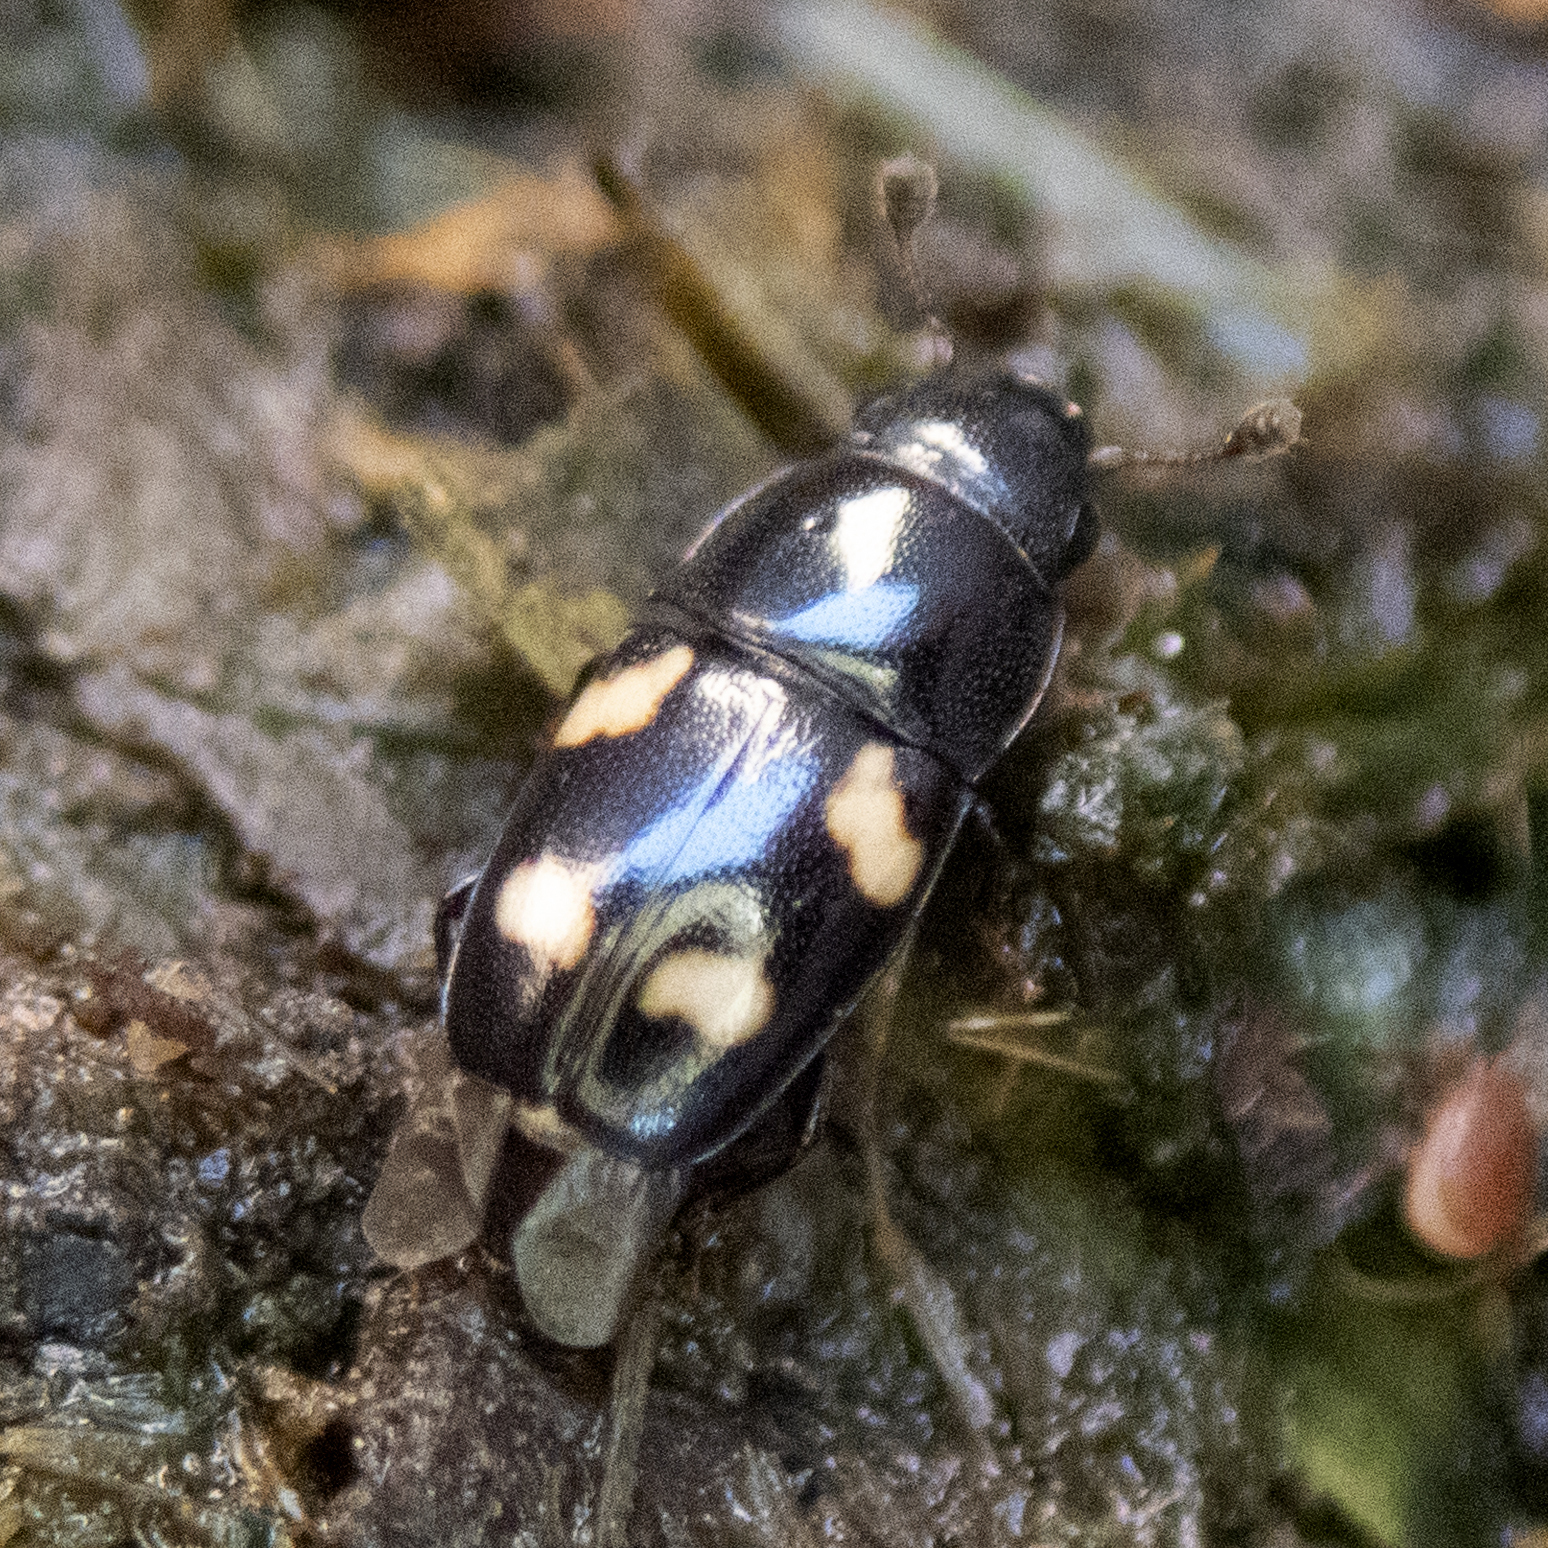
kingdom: Animalia
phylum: Arthropoda
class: Insecta
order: Coleoptera
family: Nitidulidae
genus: Glischrochilus
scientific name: Glischrochilus quadrisignatus
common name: Picnic beetle
